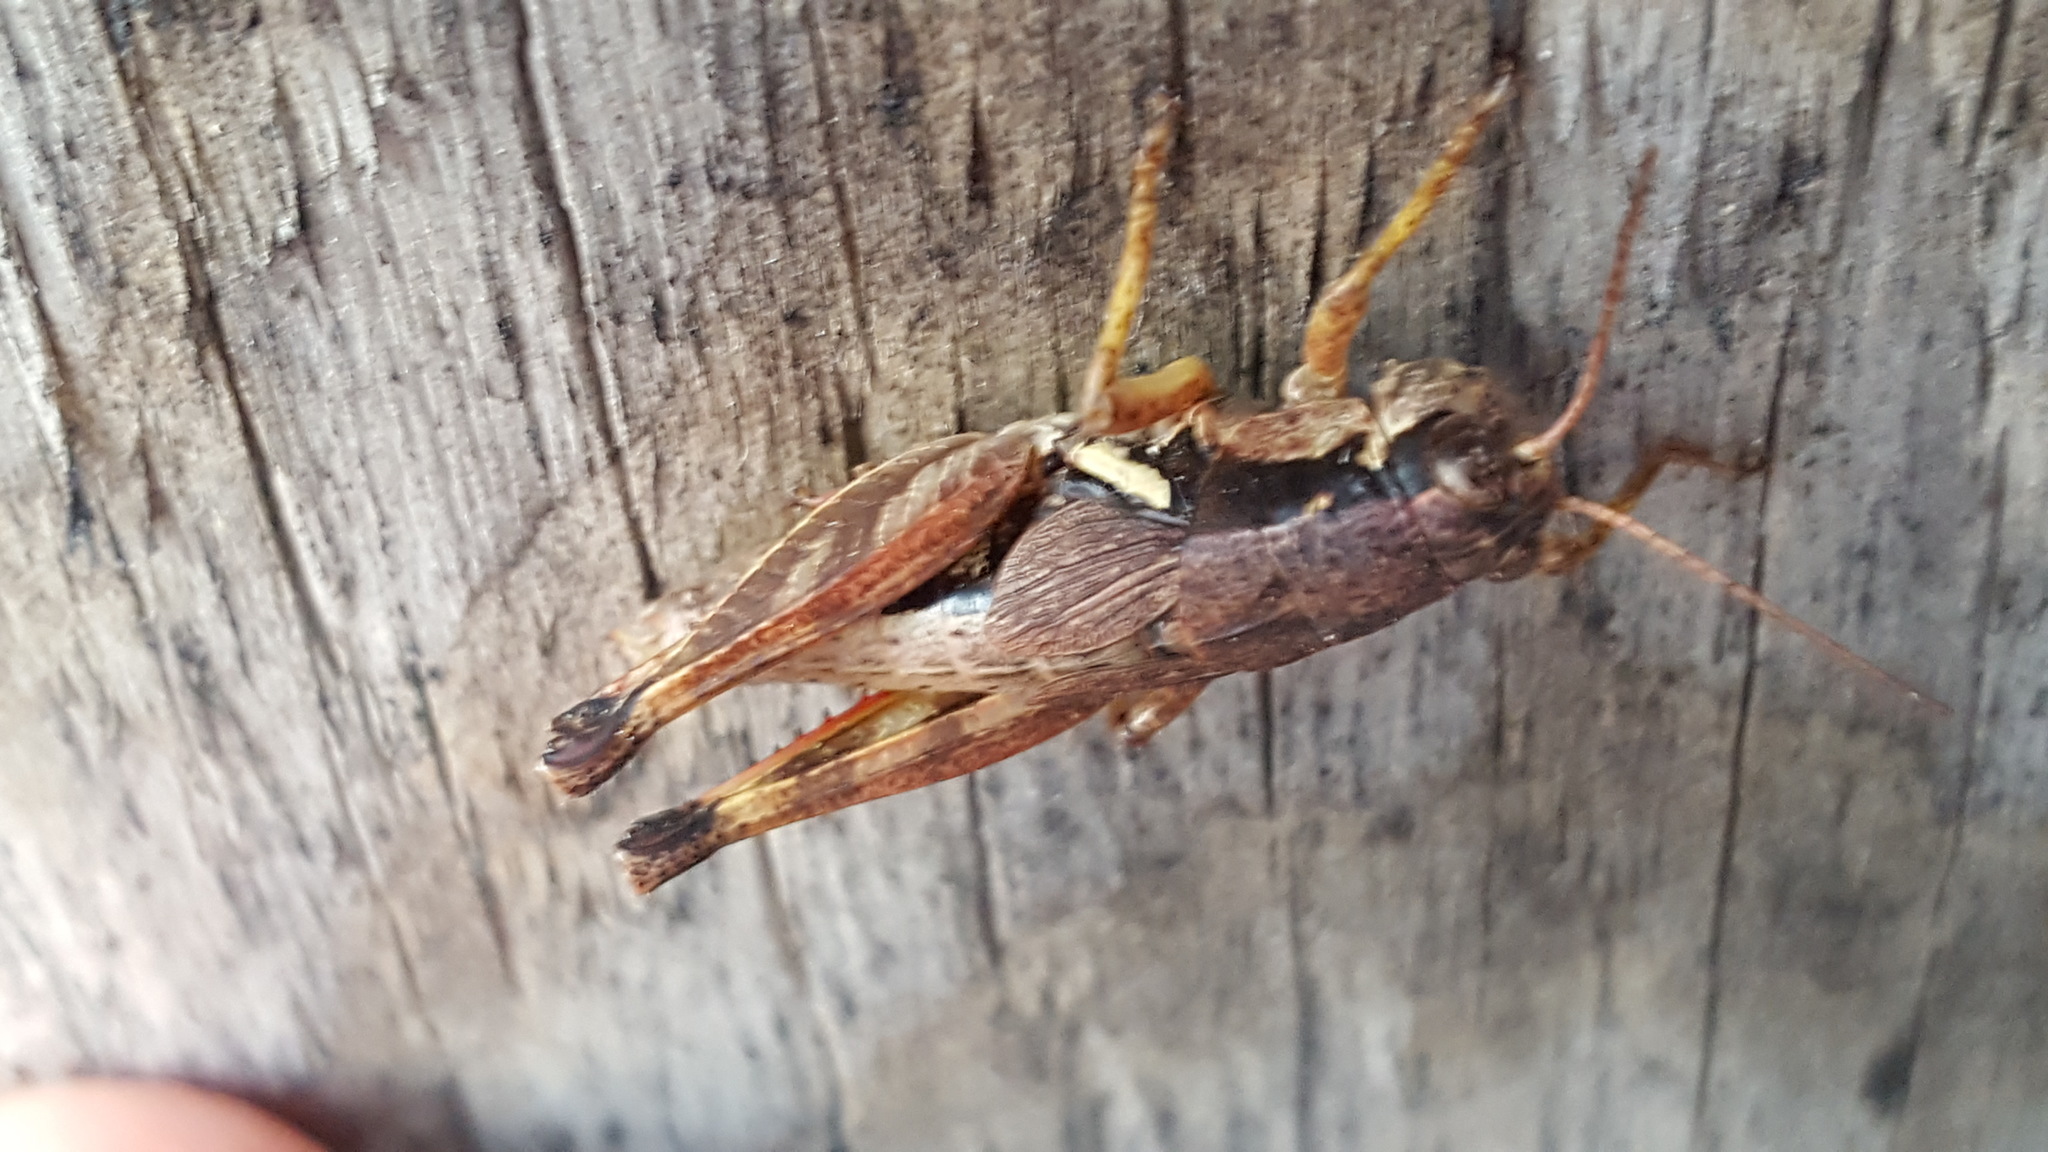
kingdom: Animalia
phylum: Arthropoda
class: Insecta
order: Orthoptera
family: Acrididae
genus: Melanoplus
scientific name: Melanoplus islandicus
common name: Island locust
